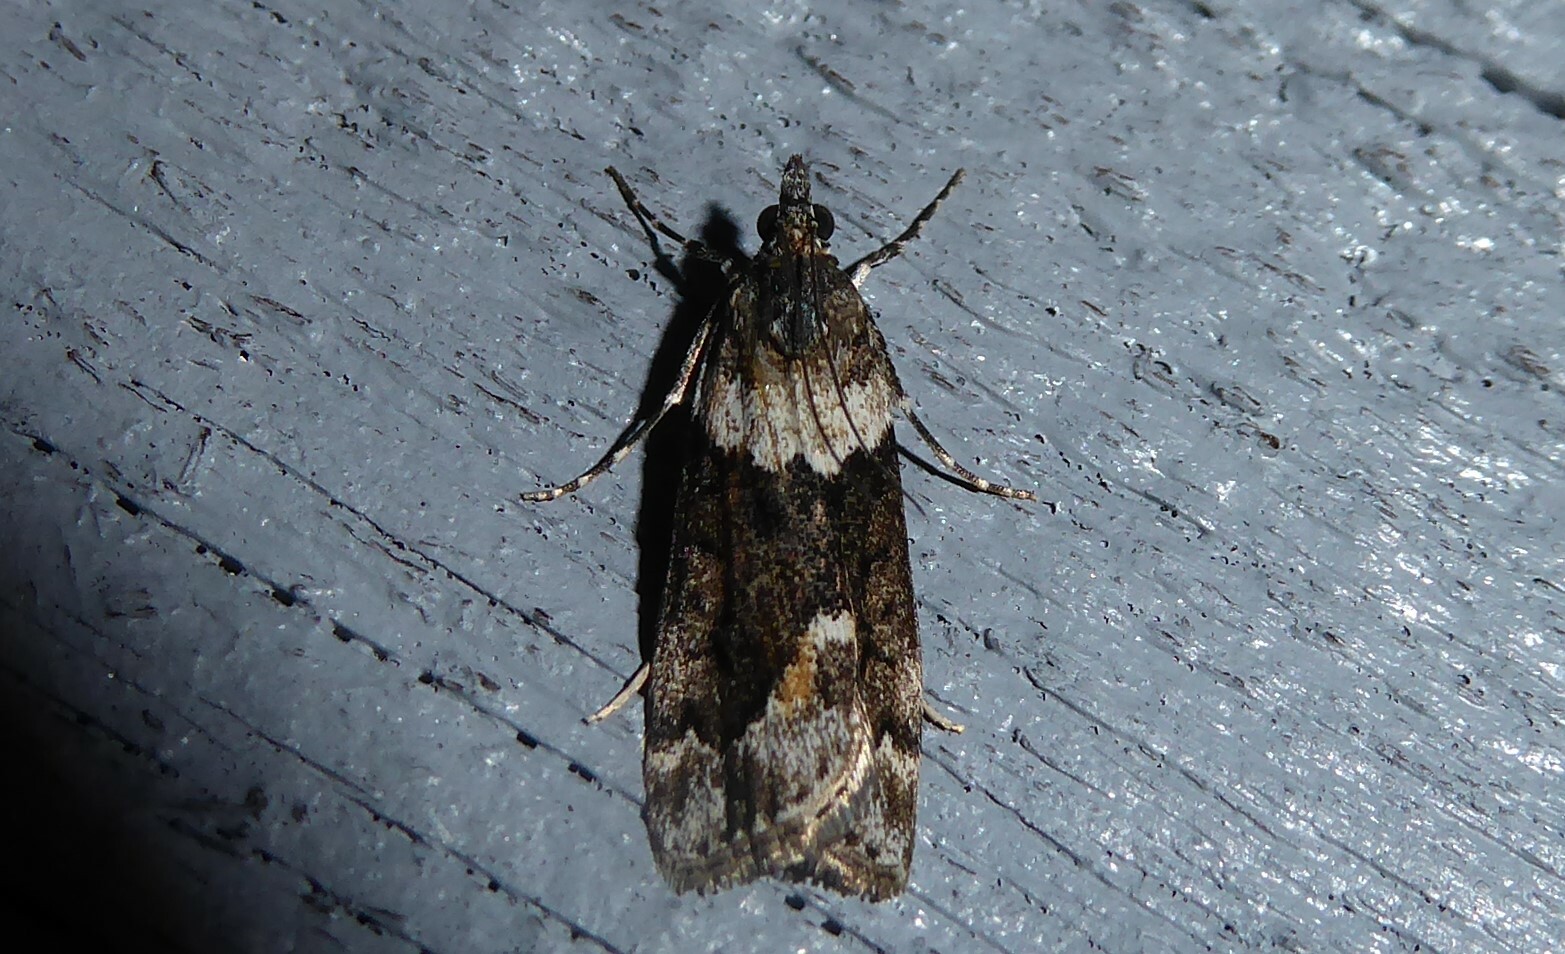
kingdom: Animalia
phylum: Arthropoda
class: Insecta
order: Lepidoptera
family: Crambidae
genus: Eudonia
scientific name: Eudonia submarginalis
